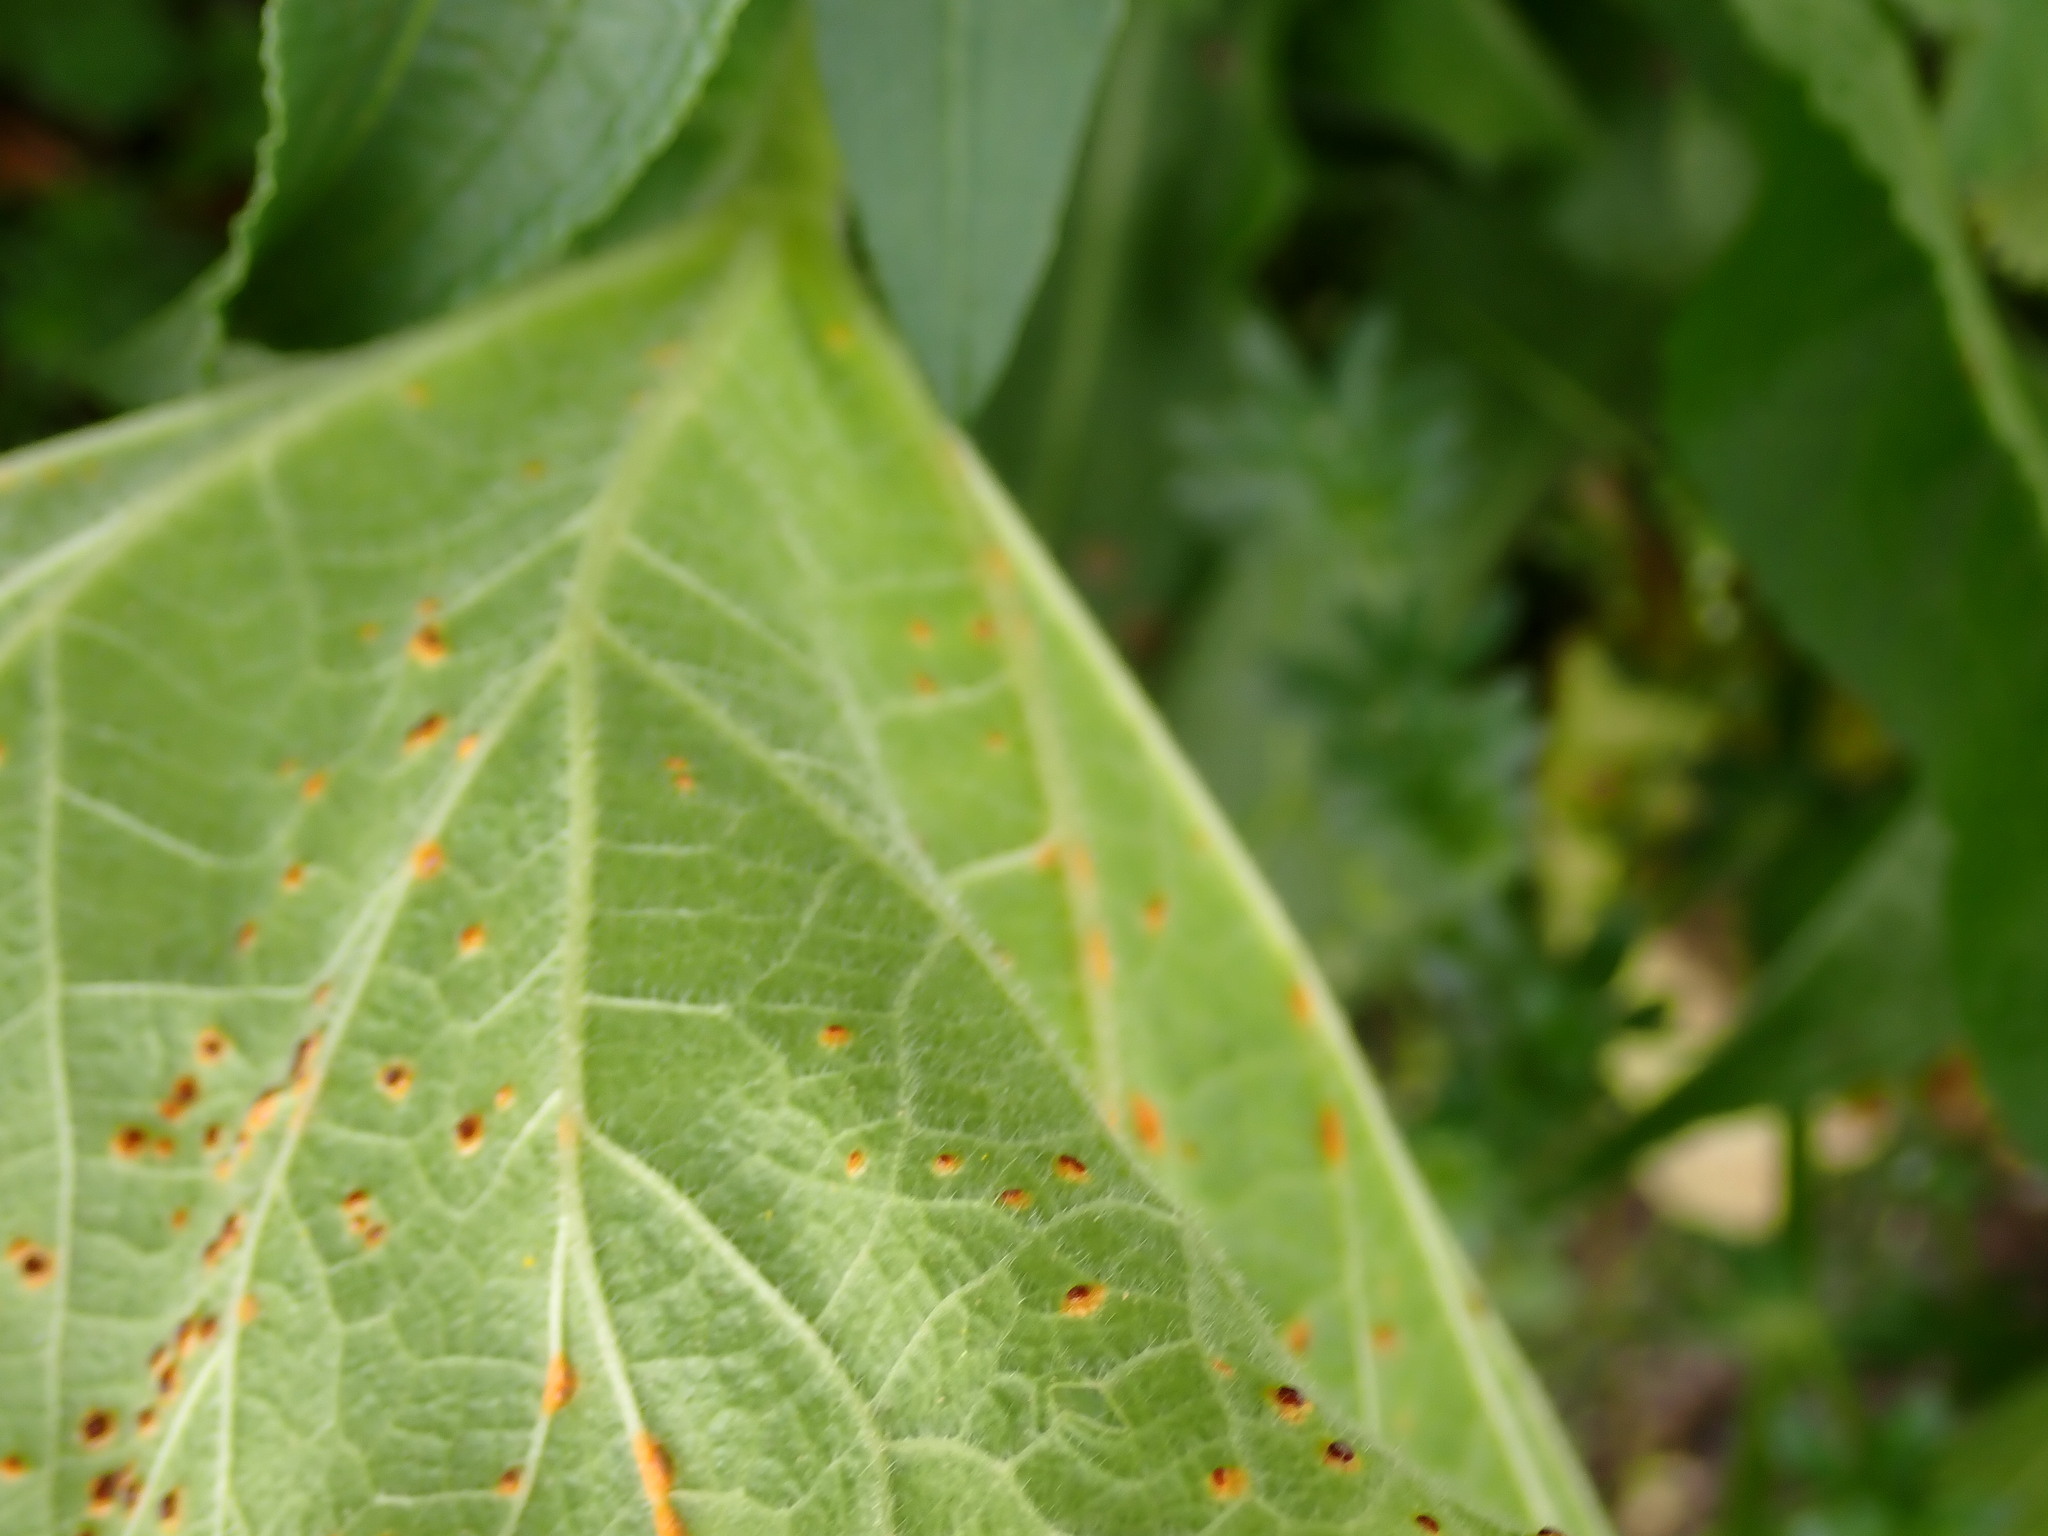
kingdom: Fungi
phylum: Basidiomycota
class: Pucciniomycetes
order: Pucciniales
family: Pucciniaceae
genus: Puccinia
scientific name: Puccinia malvacearum
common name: Hollyhock rust
